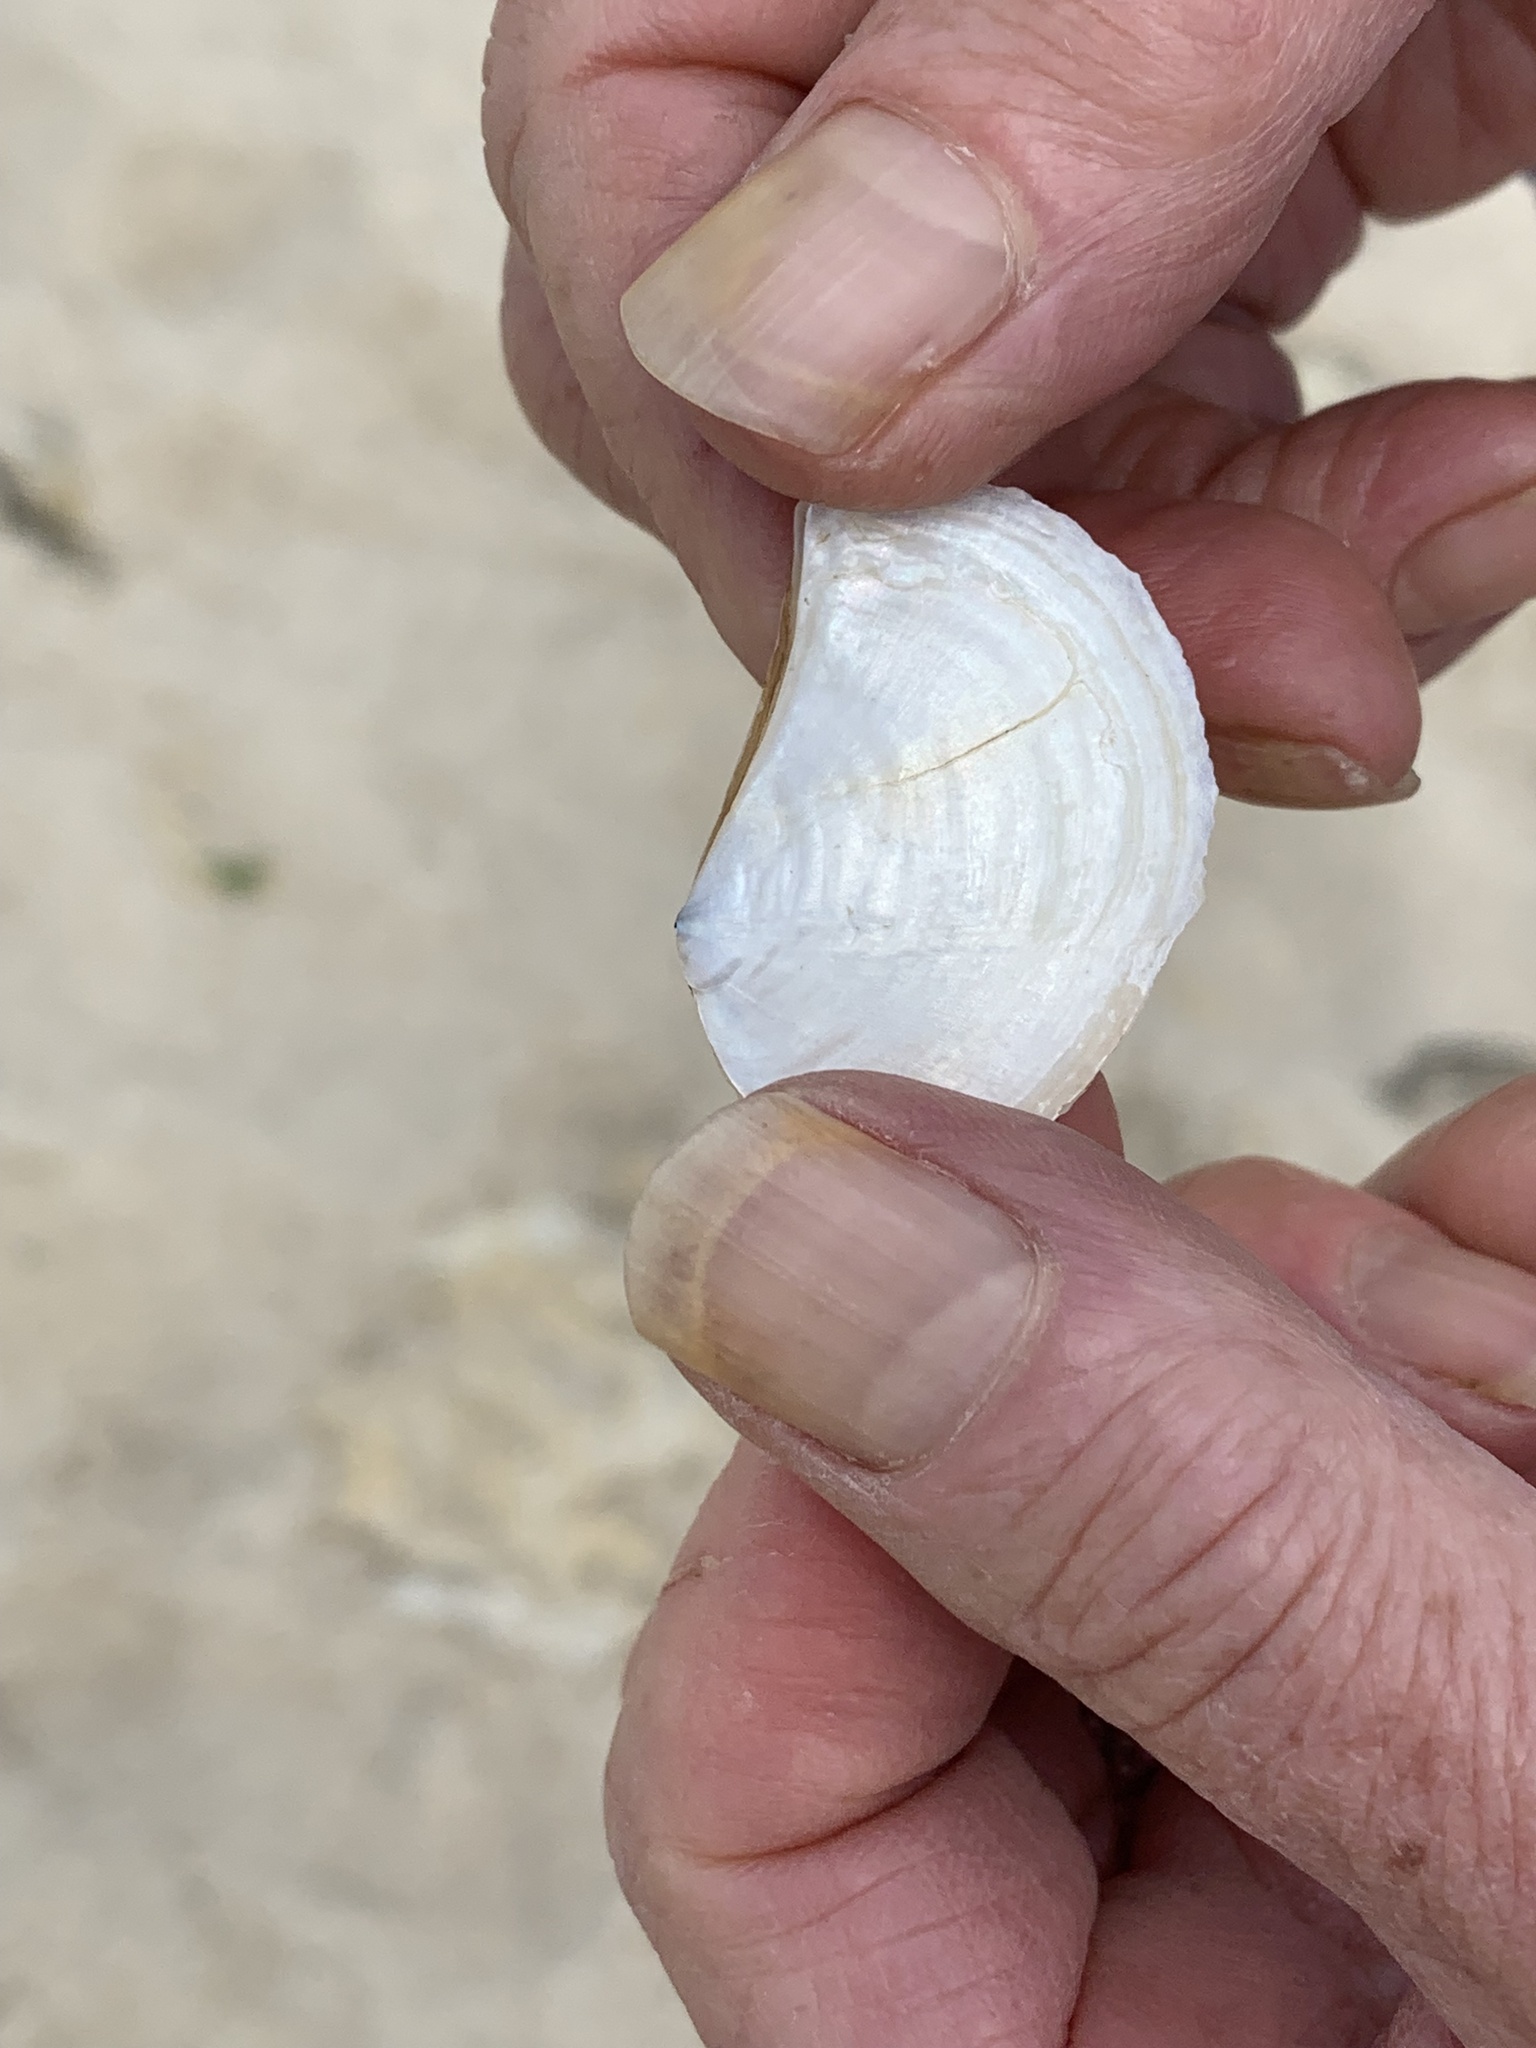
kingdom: Animalia
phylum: Mollusca
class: Bivalvia
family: Pandoridae
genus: Pandora
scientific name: Pandora gouldiana
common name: Rounded pandora
